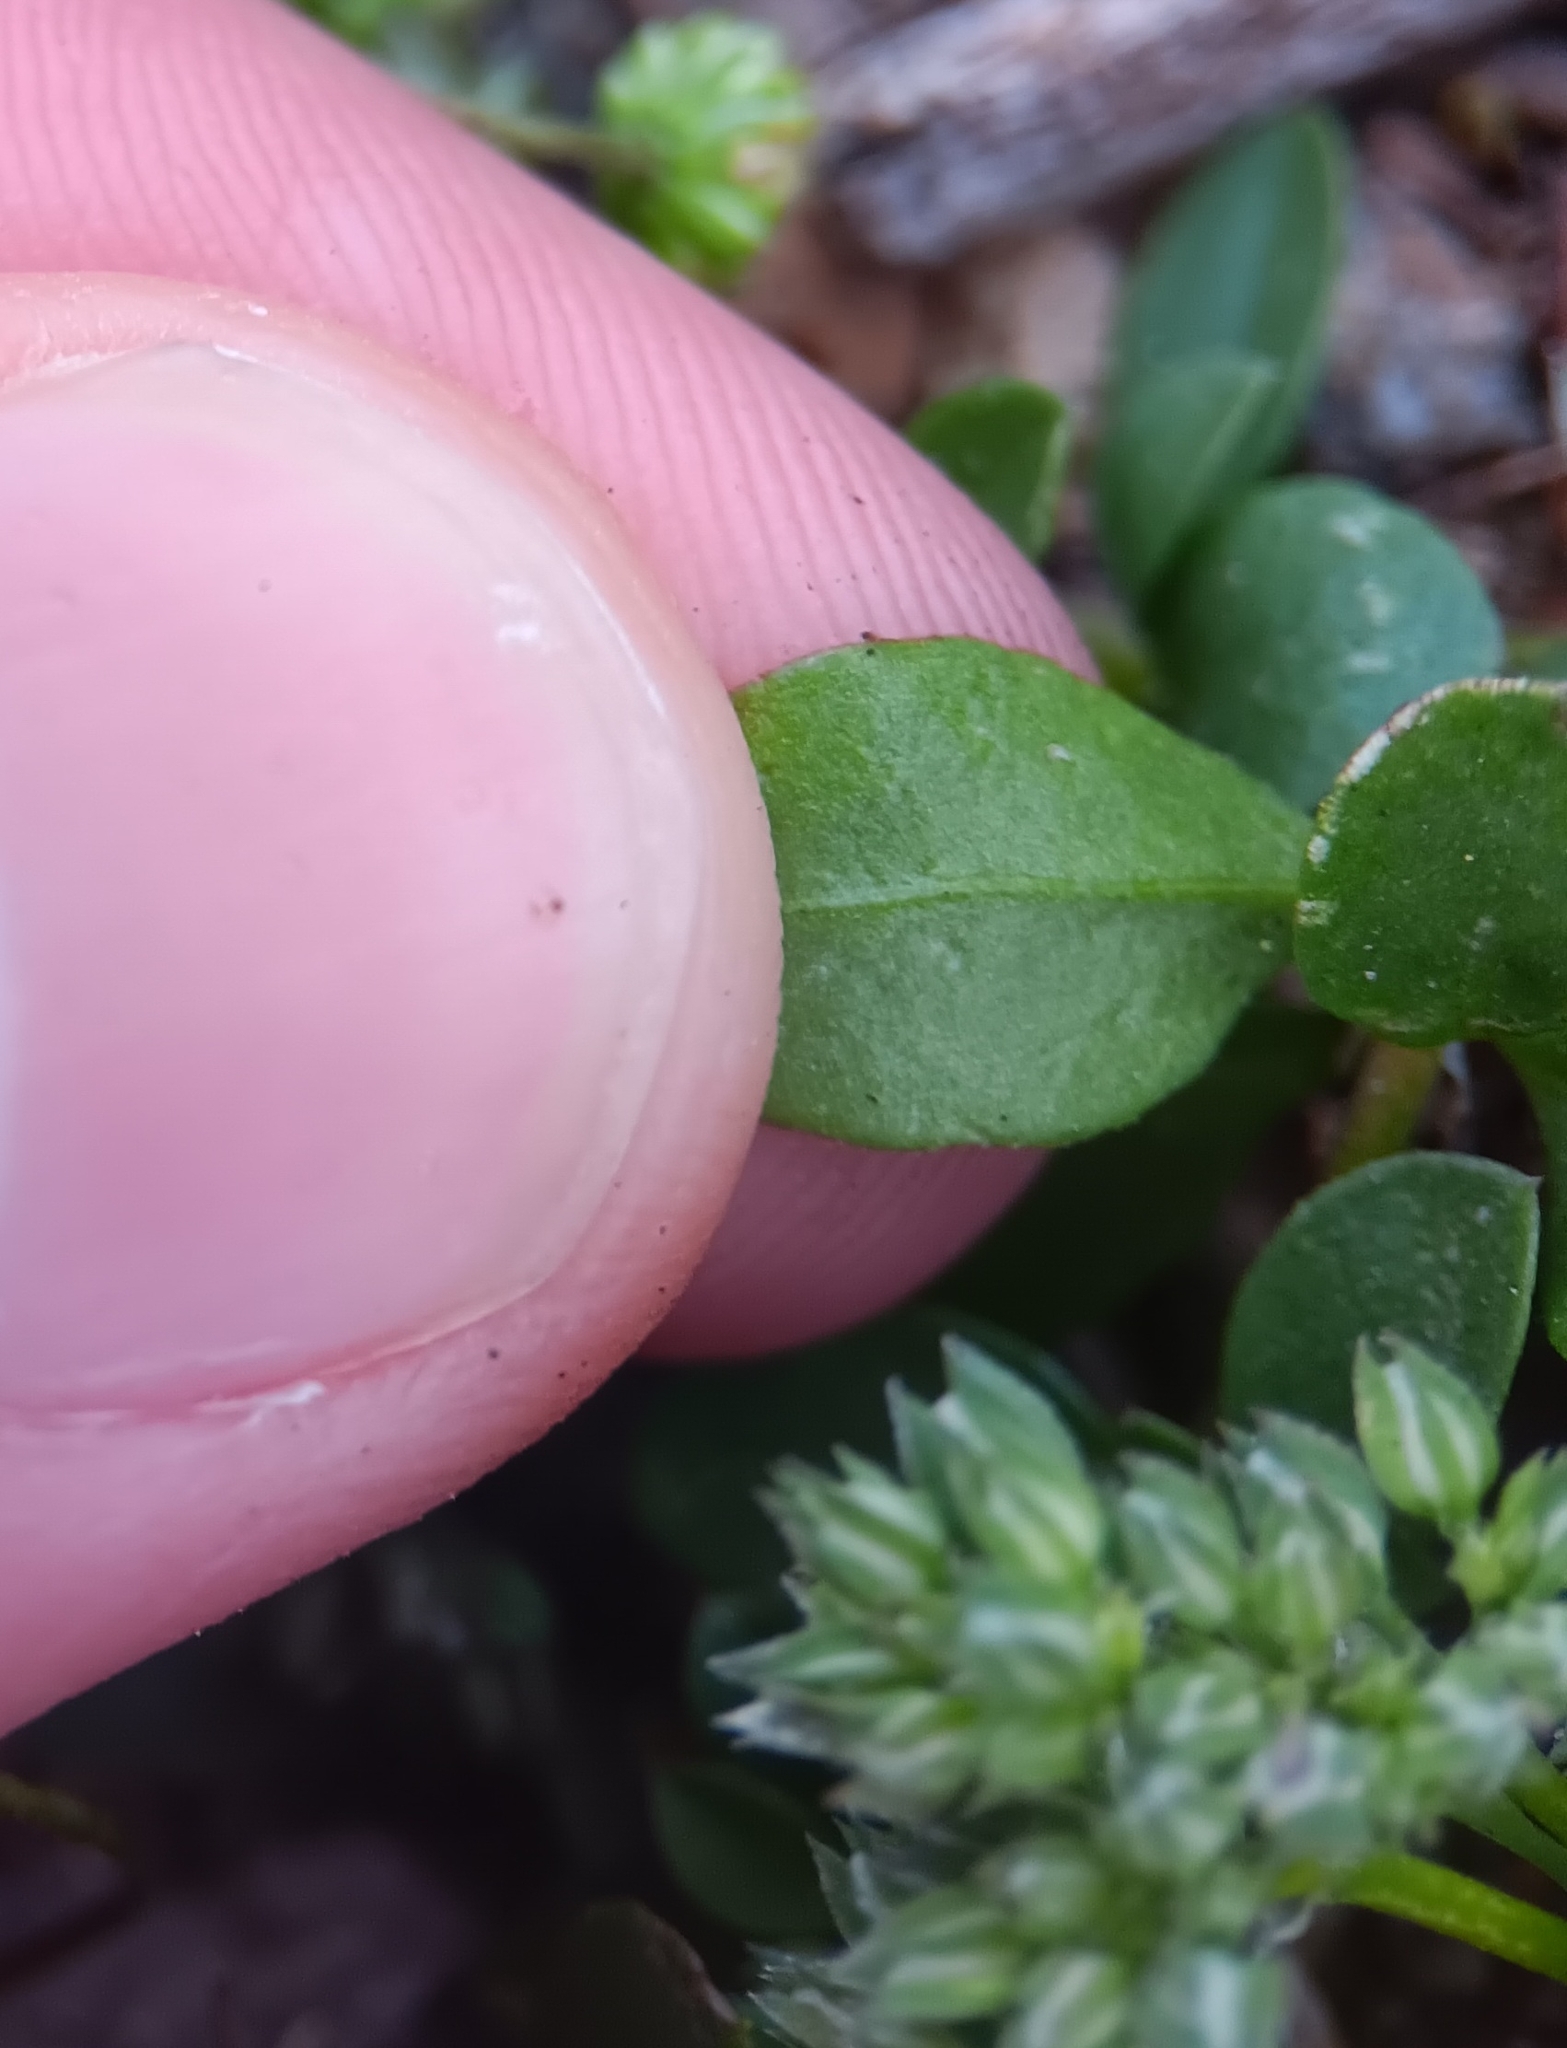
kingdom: Plantae
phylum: Tracheophyta
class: Magnoliopsida
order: Caryophyllales
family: Caryophyllaceae
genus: Polycarpon
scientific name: Polycarpon tetraphyllum
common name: Four-leaved all-seed
